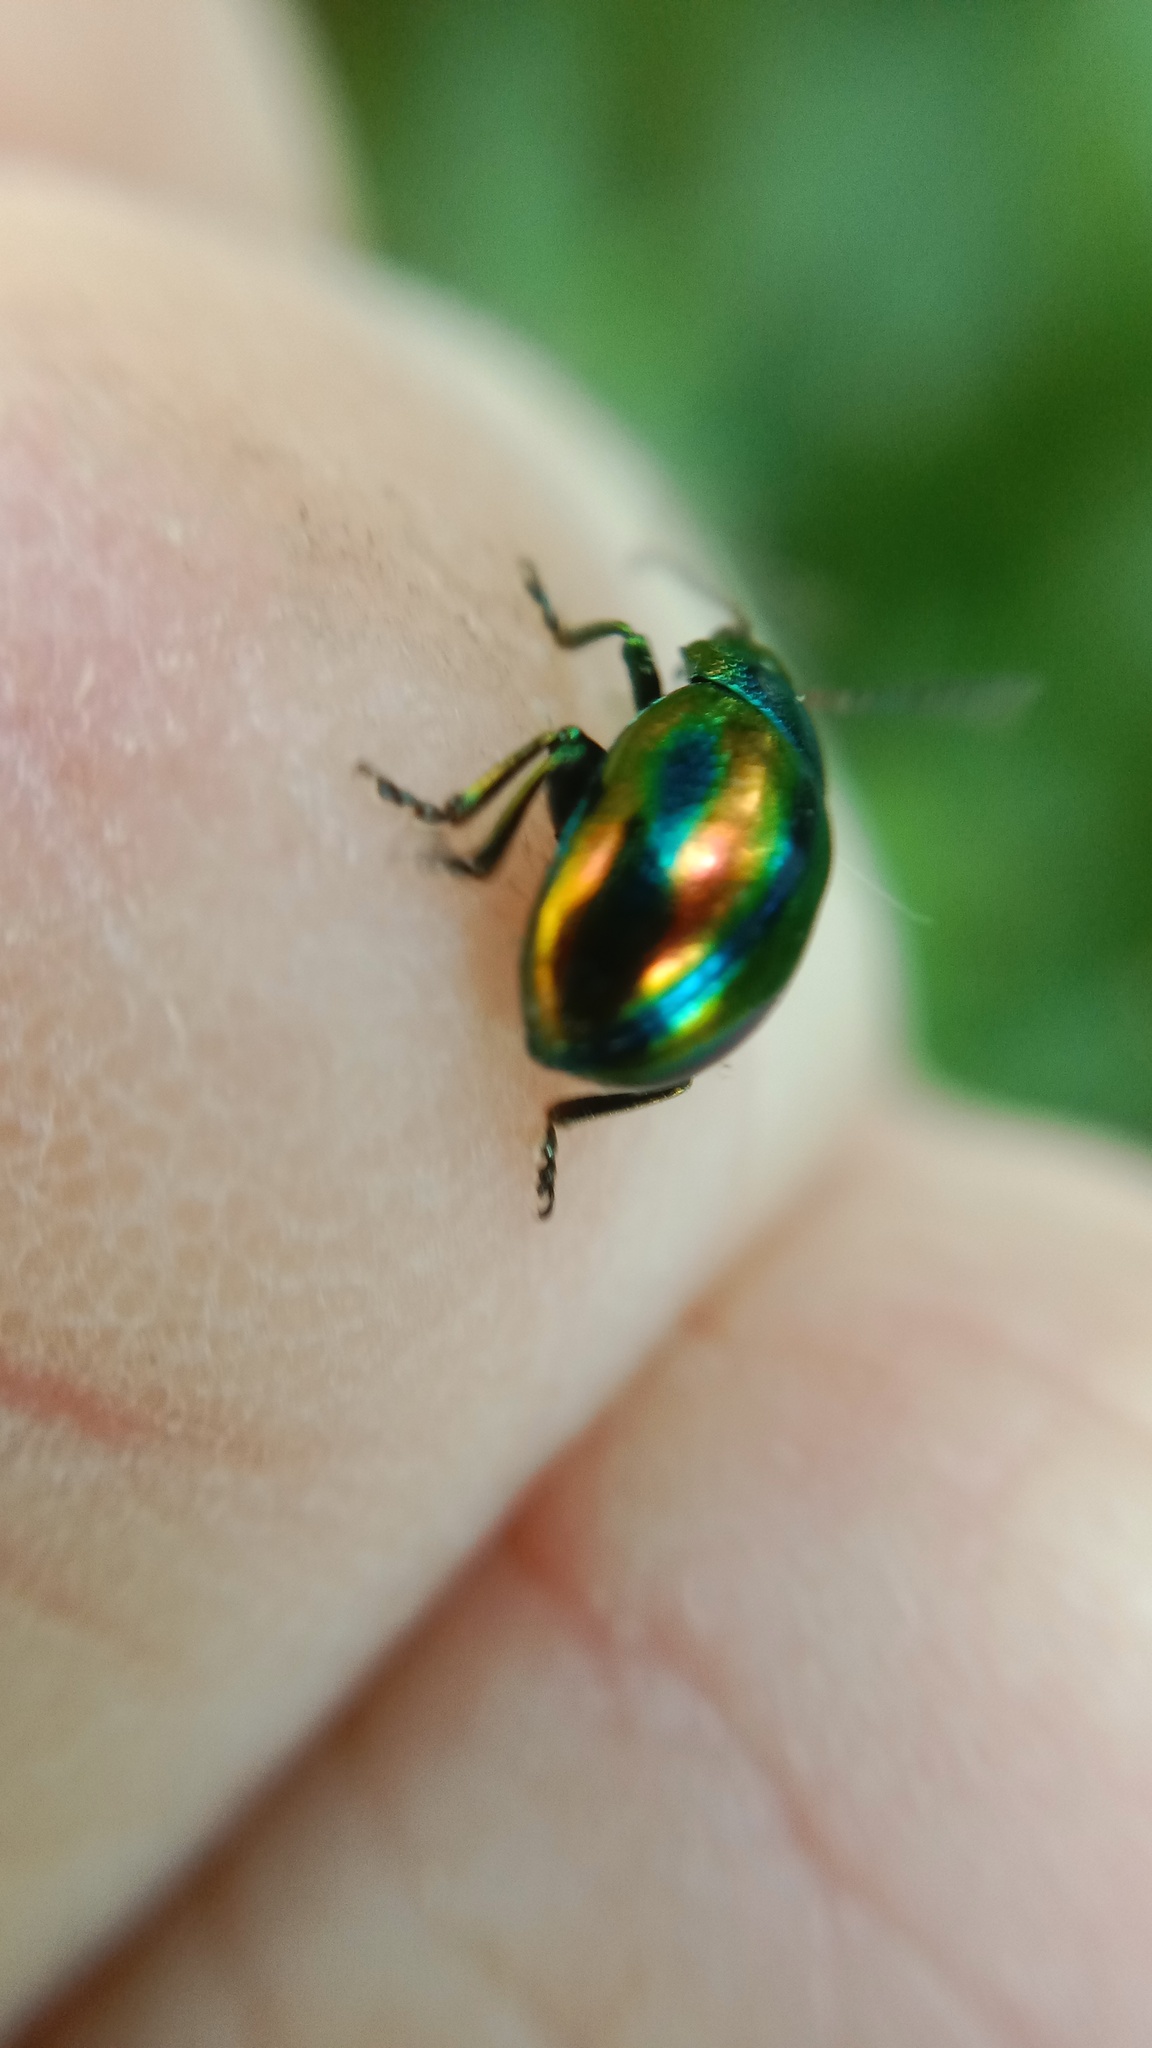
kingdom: Animalia
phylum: Arthropoda
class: Insecta
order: Coleoptera
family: Chrysomelidae
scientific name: Chrysomelidae
